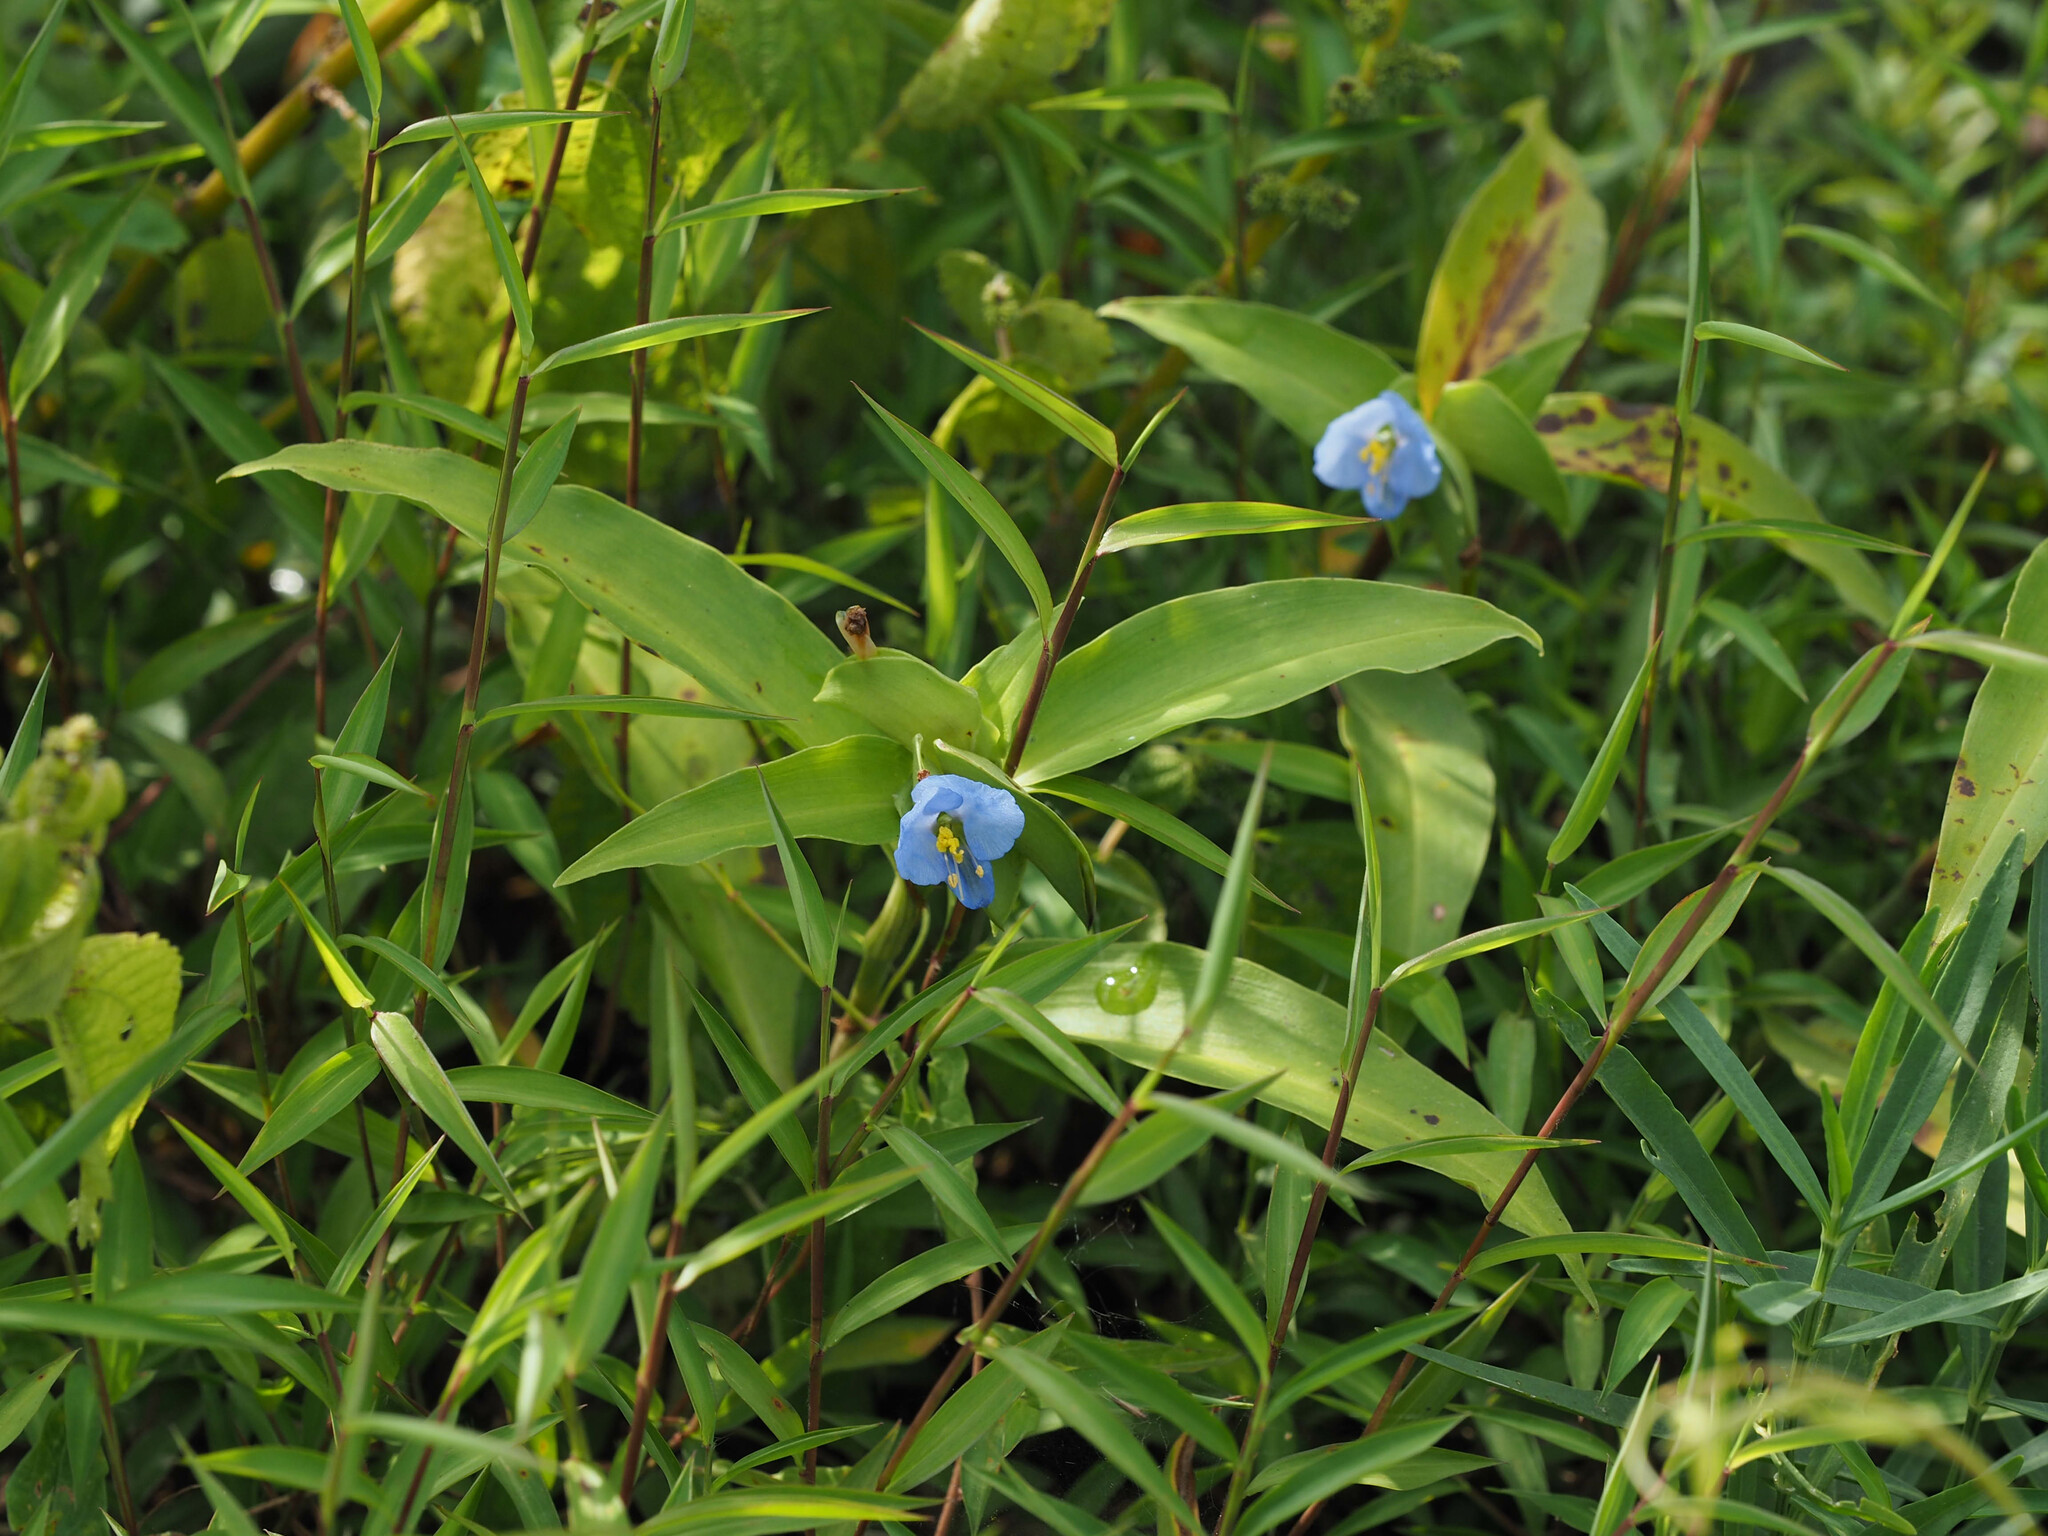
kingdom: Plantae
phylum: Tracheophyta
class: Liliopsida
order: Commelinales
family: Commelinaceae
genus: Commelina
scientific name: Commelina virginica
